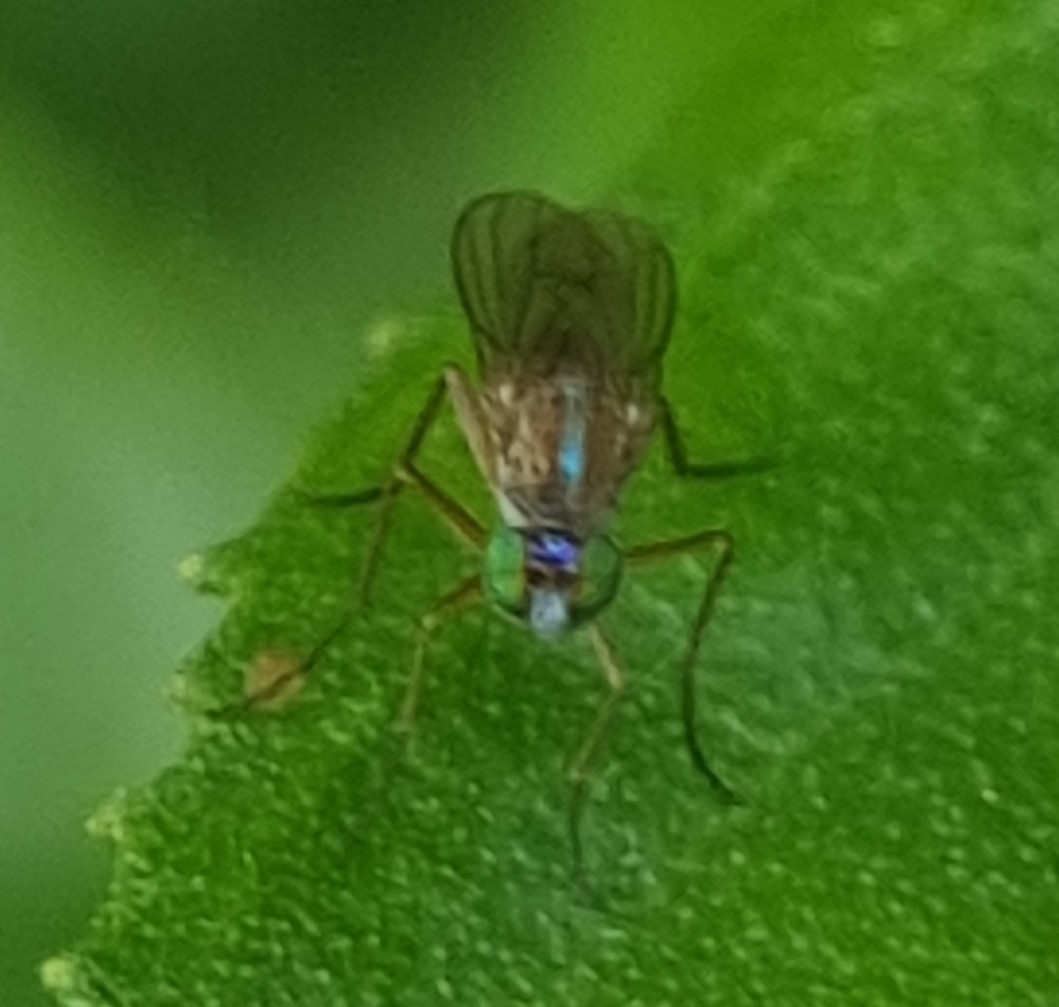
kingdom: Animalia
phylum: Arthropoda
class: Insecta
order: Diptera
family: Dolichopodidae
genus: Sympycnus
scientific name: Sympycnus anomalipennis
